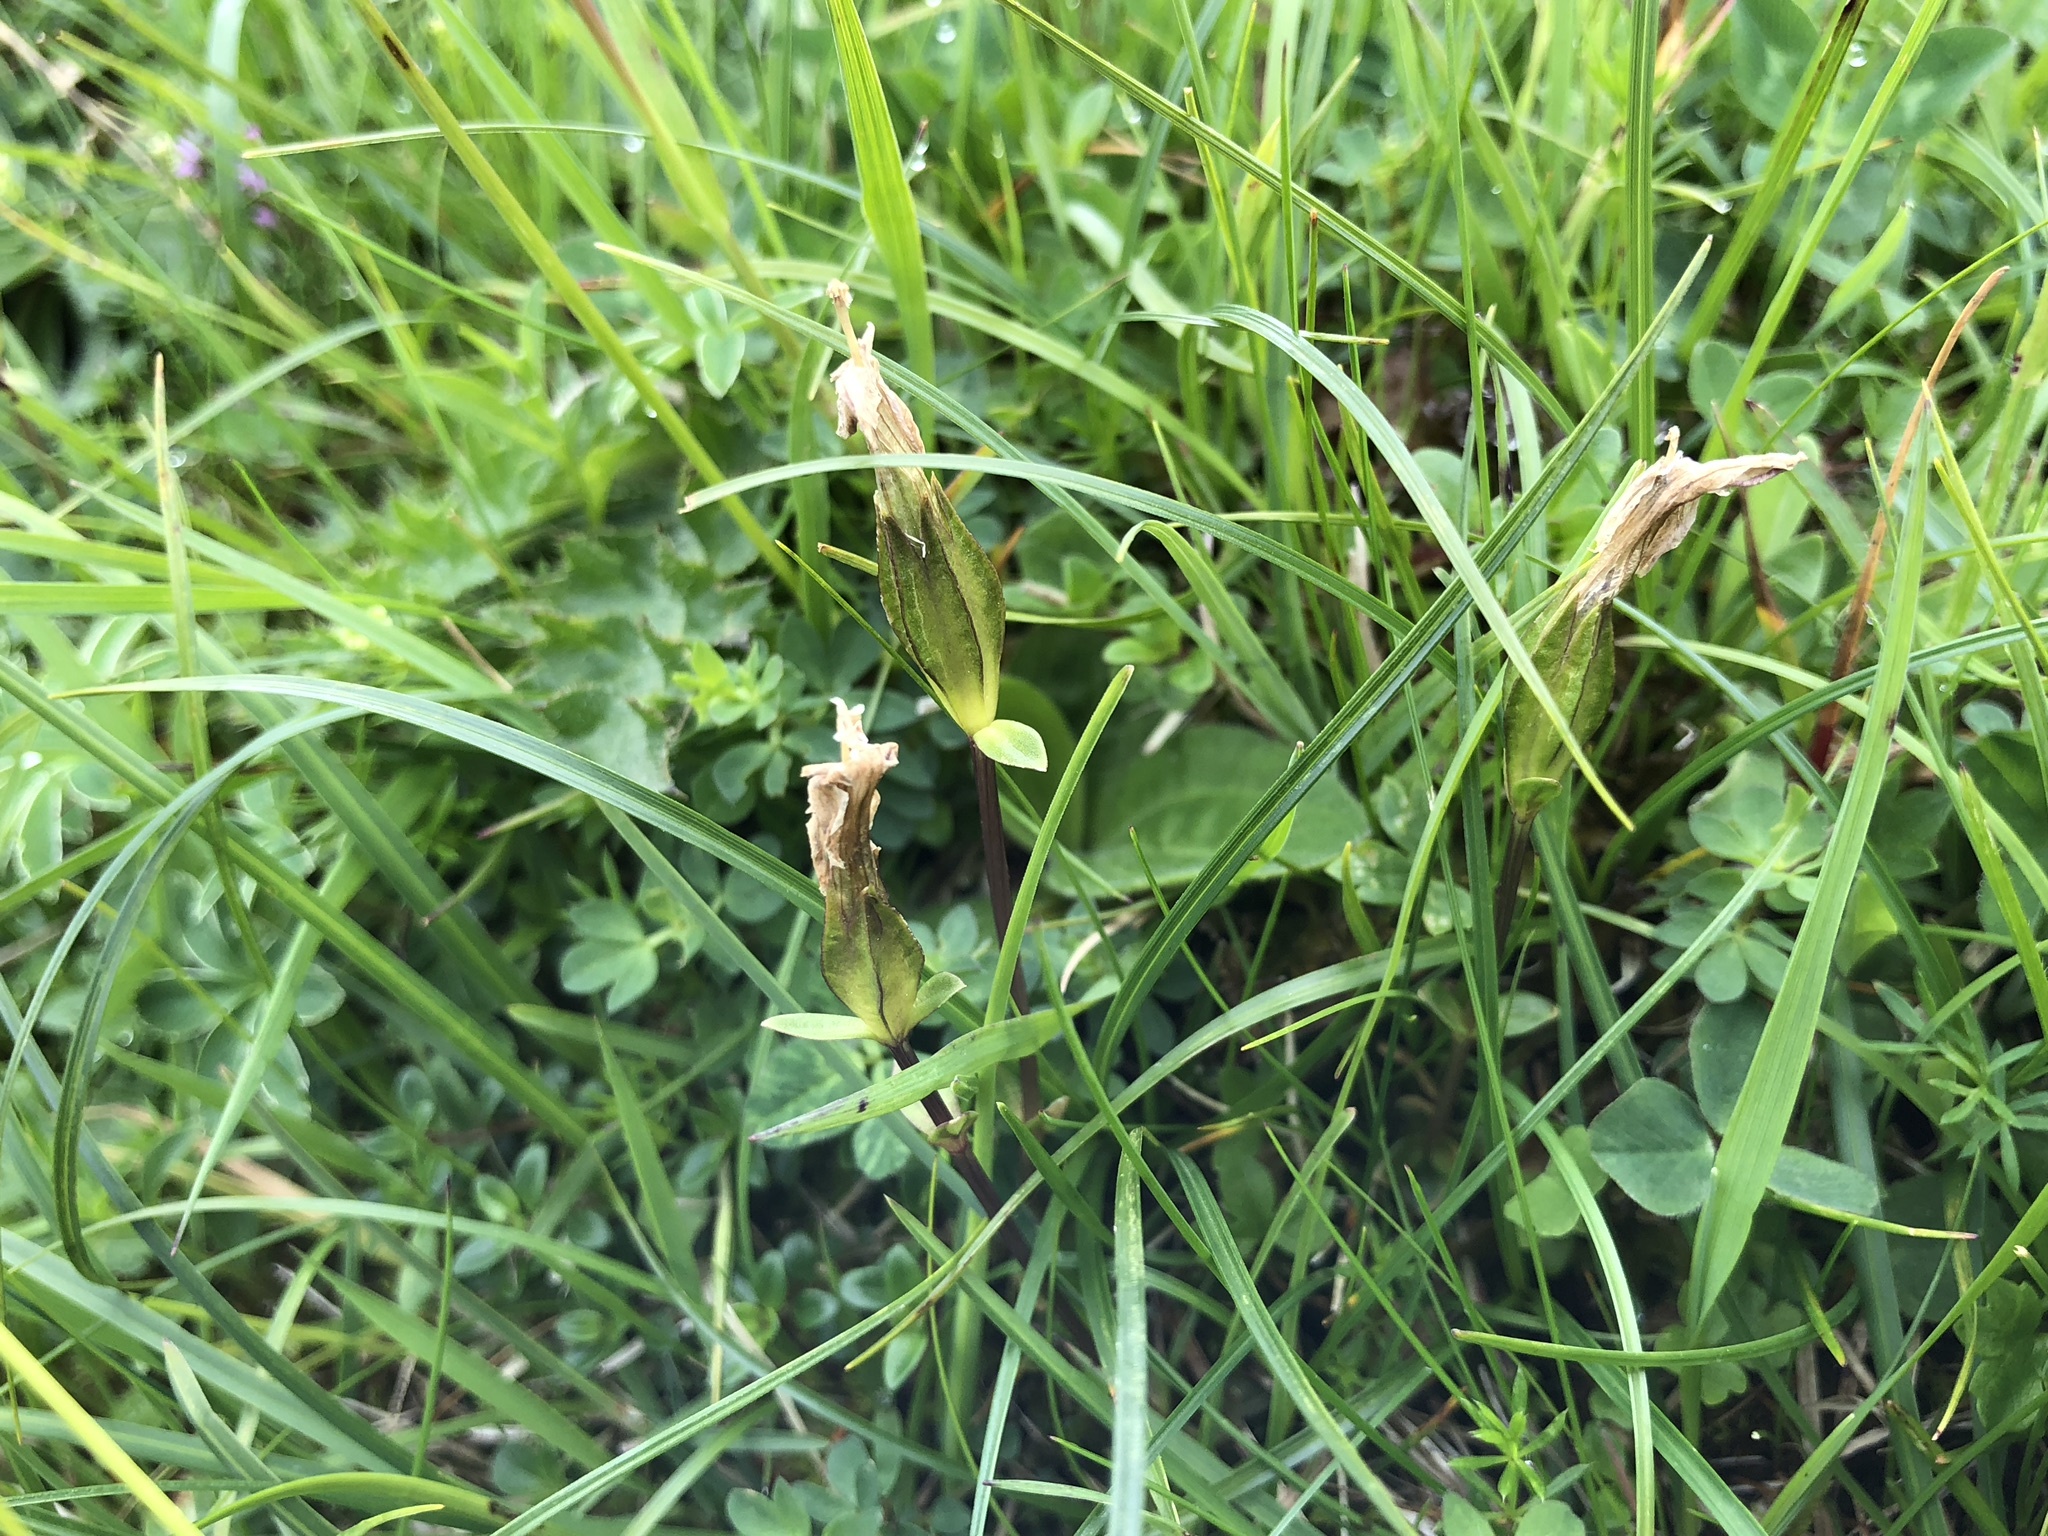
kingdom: Plantae
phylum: Tracheophyta
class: Magnoliopsida
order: Gentianales
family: Gentianaceae
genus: Gentiana
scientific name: Gentiana verna
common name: Spring gentian
